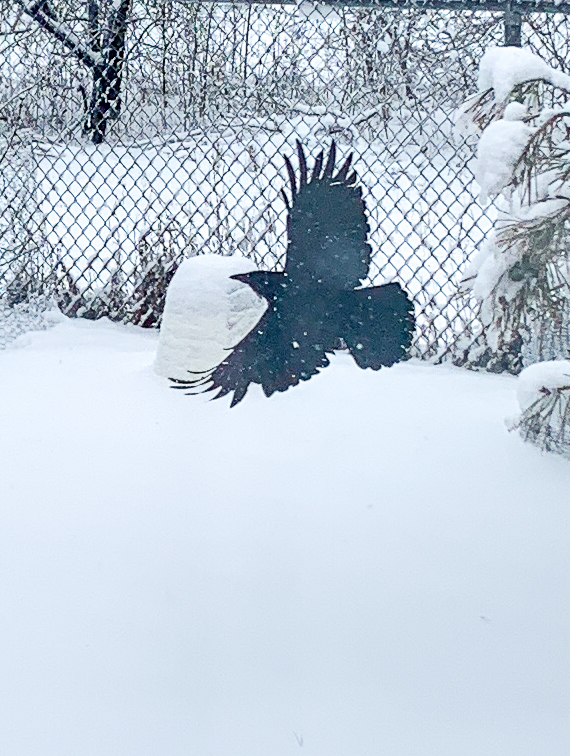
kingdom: Animalia
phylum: Chordata
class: Aves
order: Passeriformes
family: Corvidae
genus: Corvus
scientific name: Corvus corax
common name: Common raven
